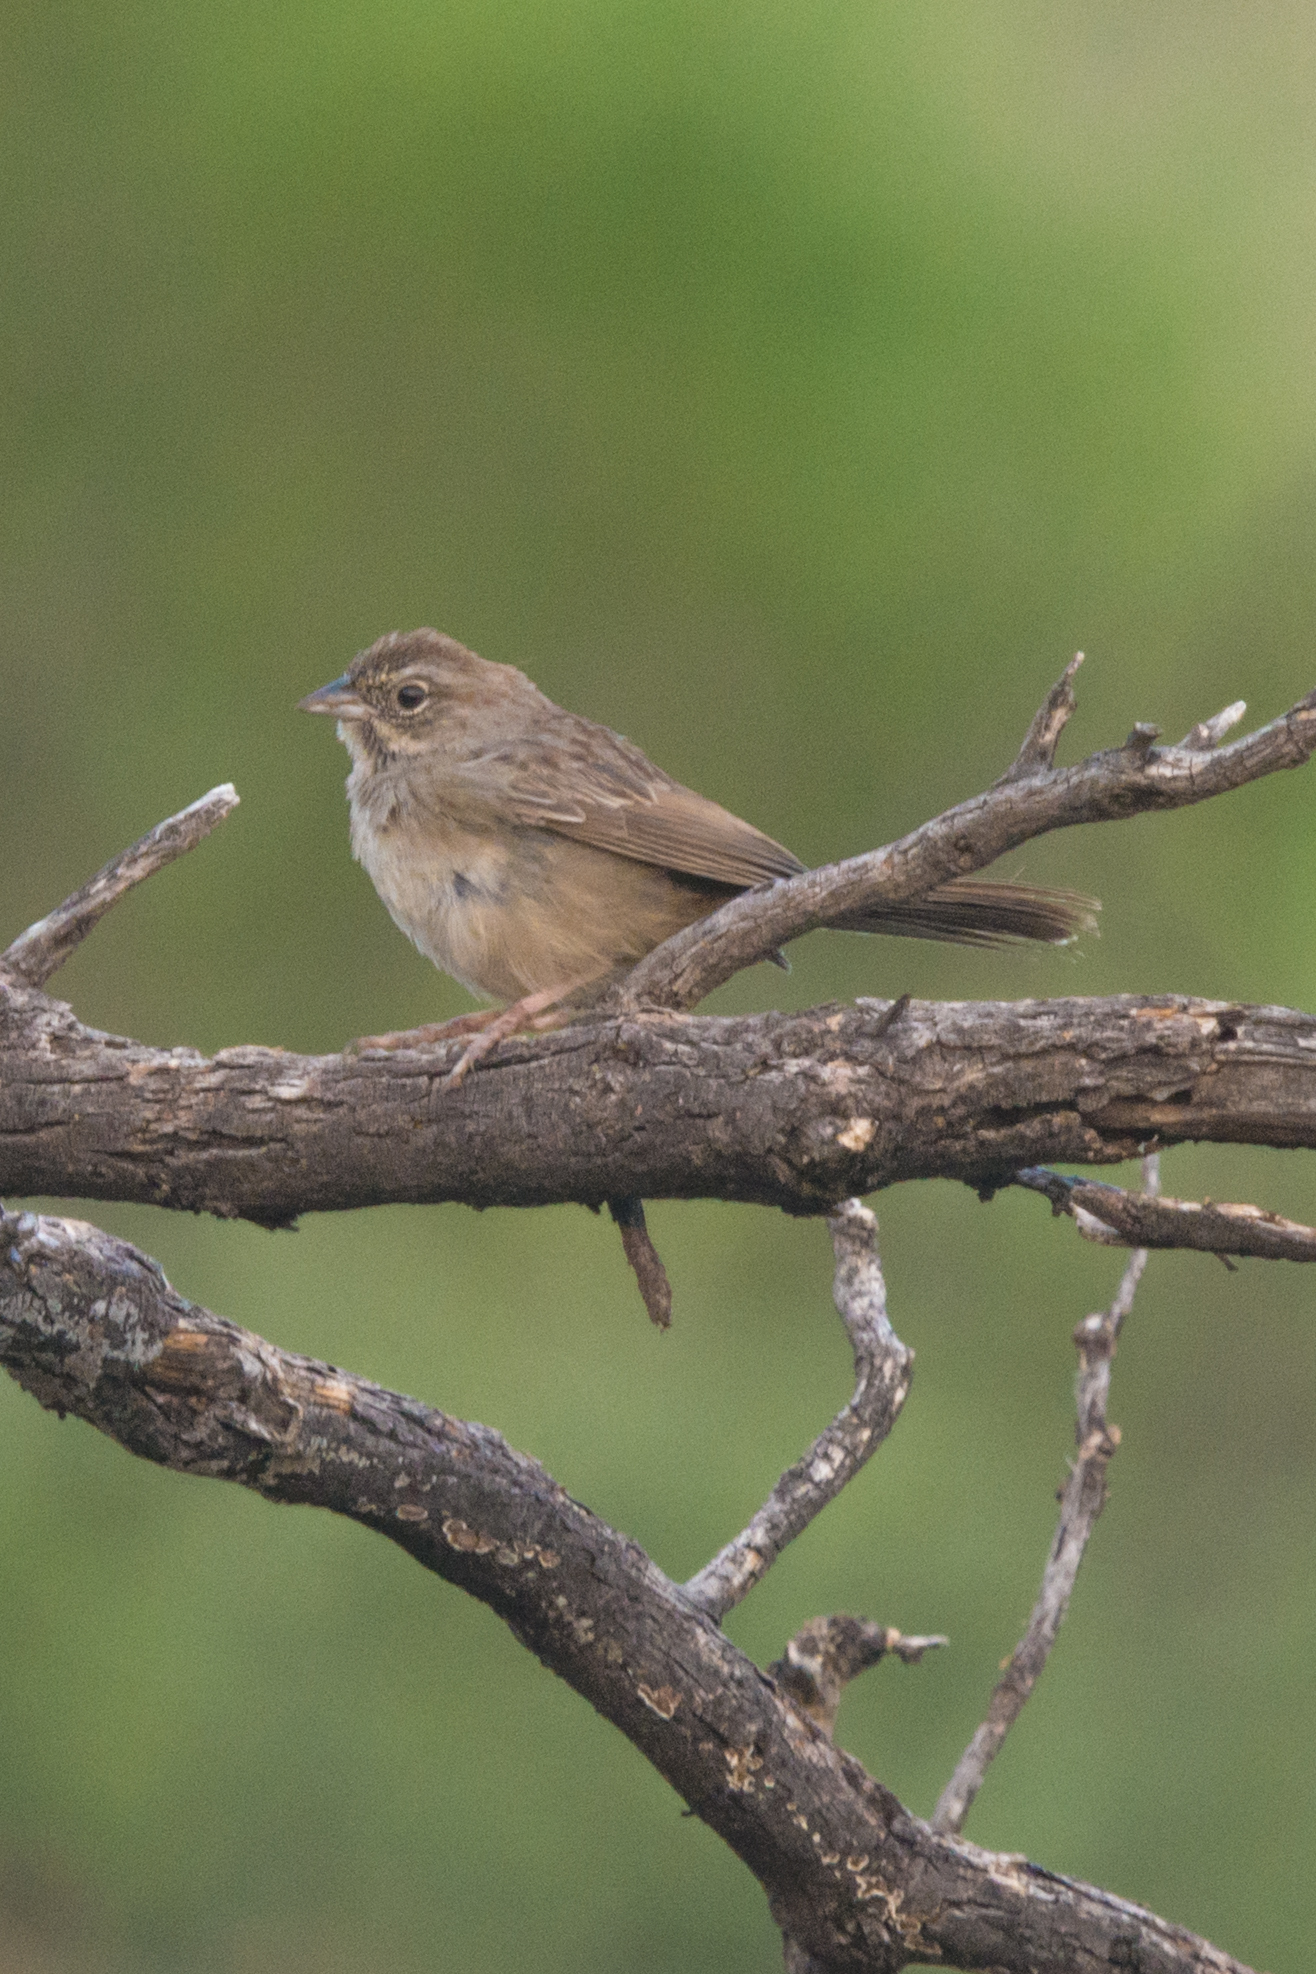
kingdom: Animalia
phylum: Chordata
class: Aves
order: Passeriformes
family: Passerellidae
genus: Aimophila
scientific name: Aimophila ruficeps
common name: Rufous-crowned sparrow
